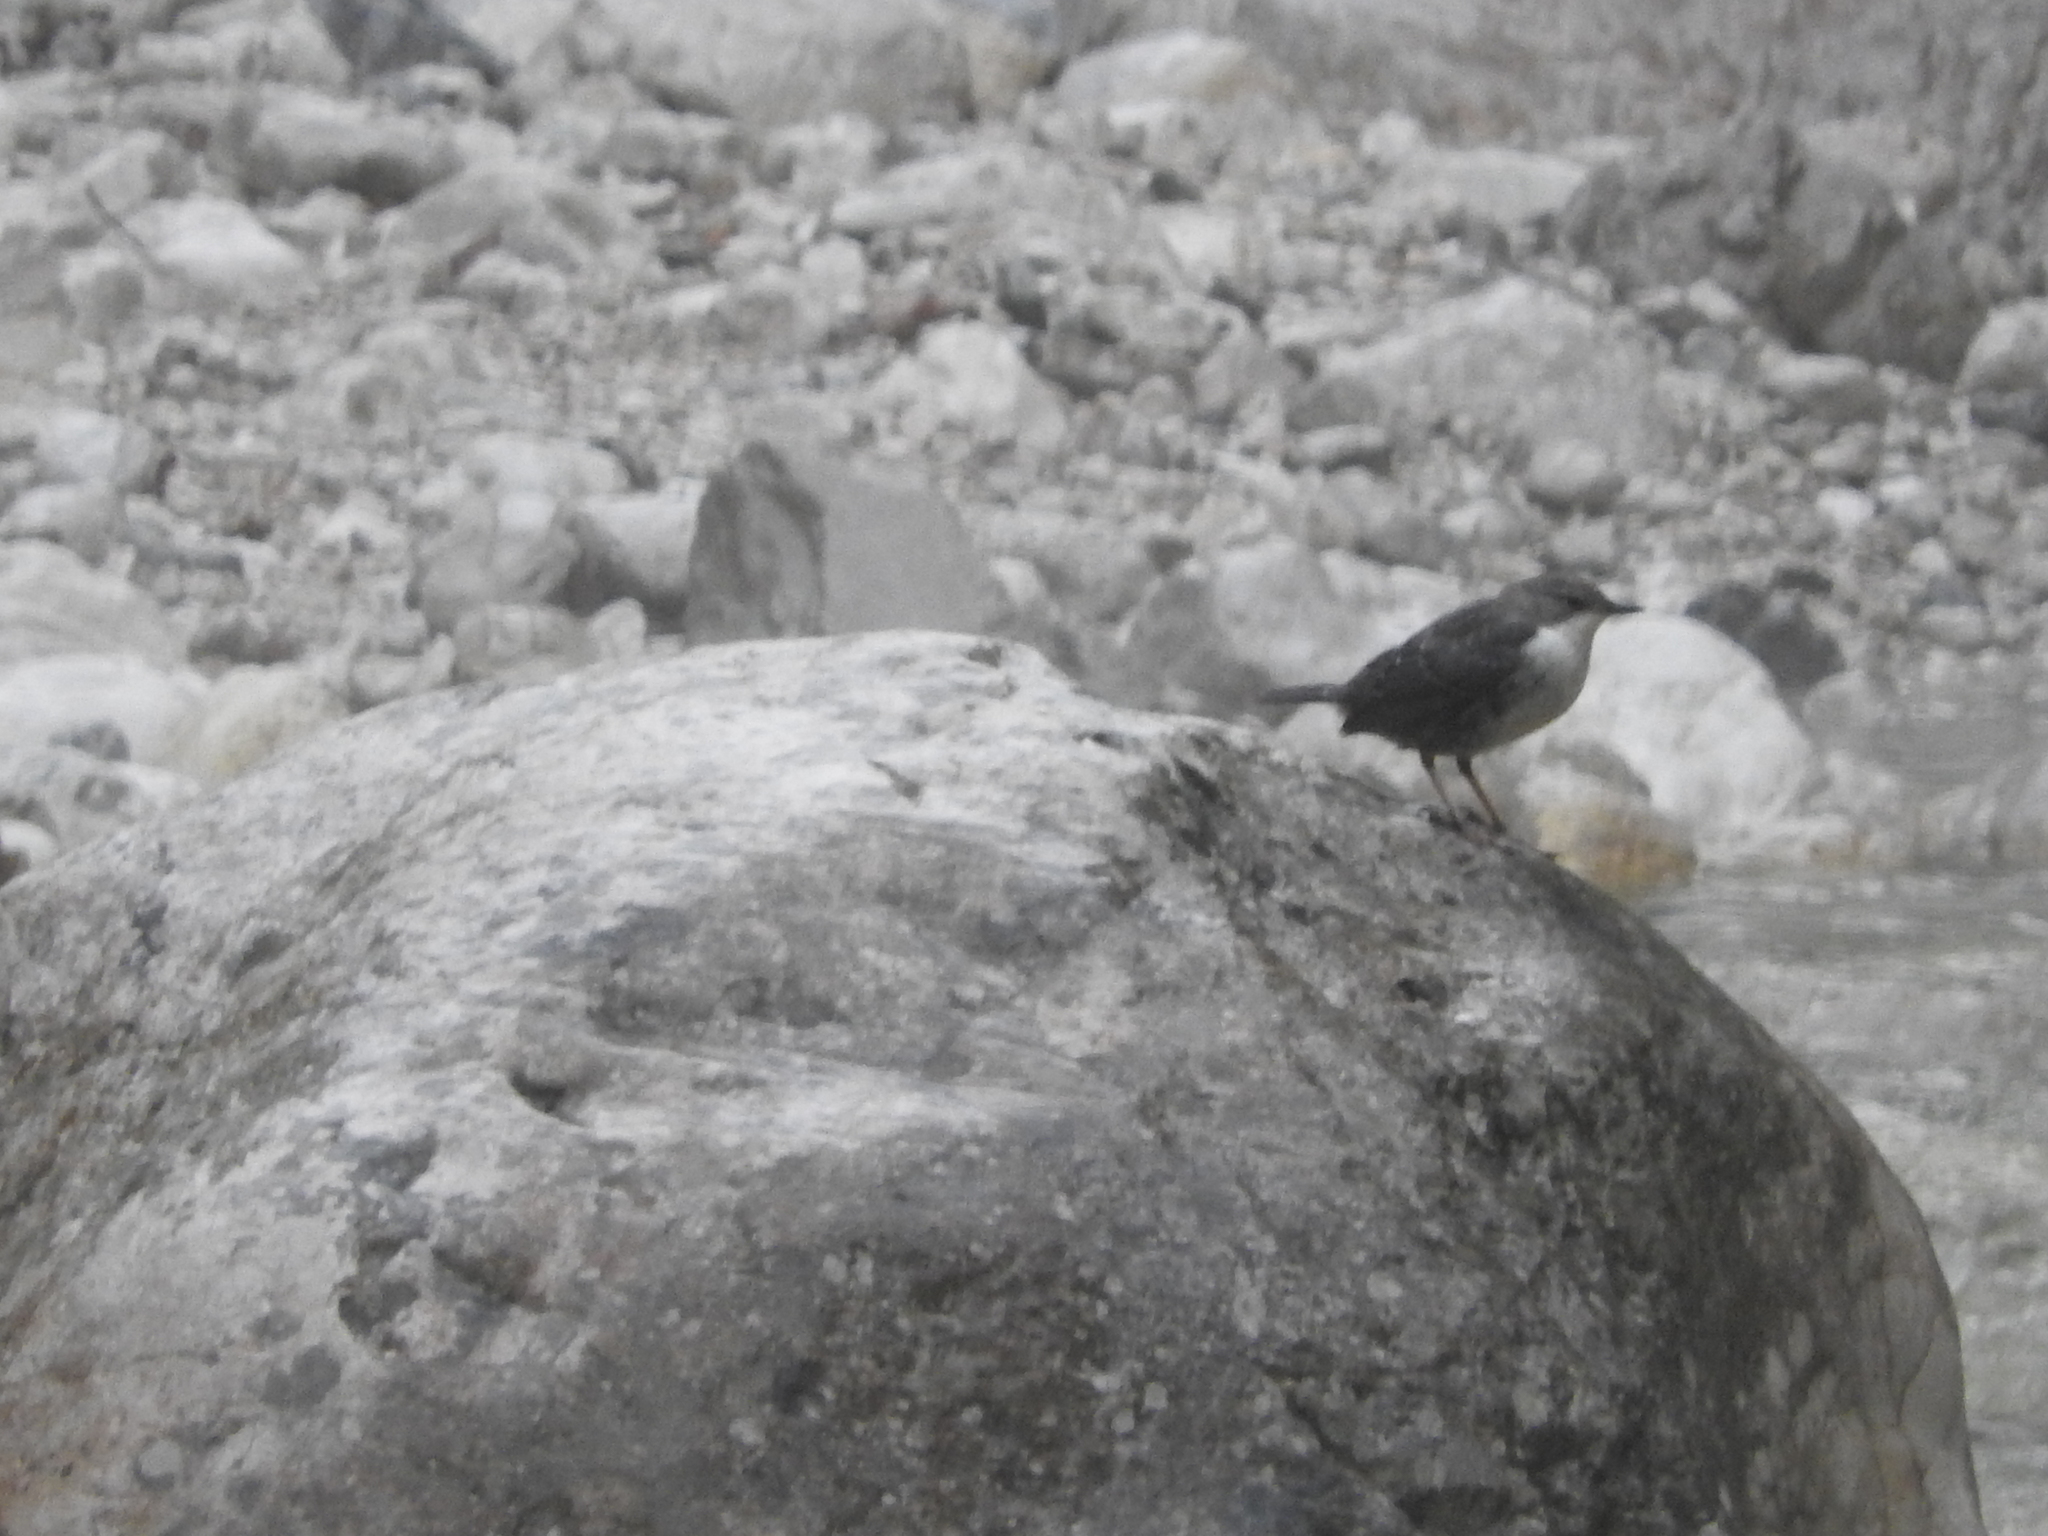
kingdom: Animalia
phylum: Chordata
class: Aves
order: Passeriformes
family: Cinclidae
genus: Cinclus
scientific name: Cinclus cinclus
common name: White-throated dipper
